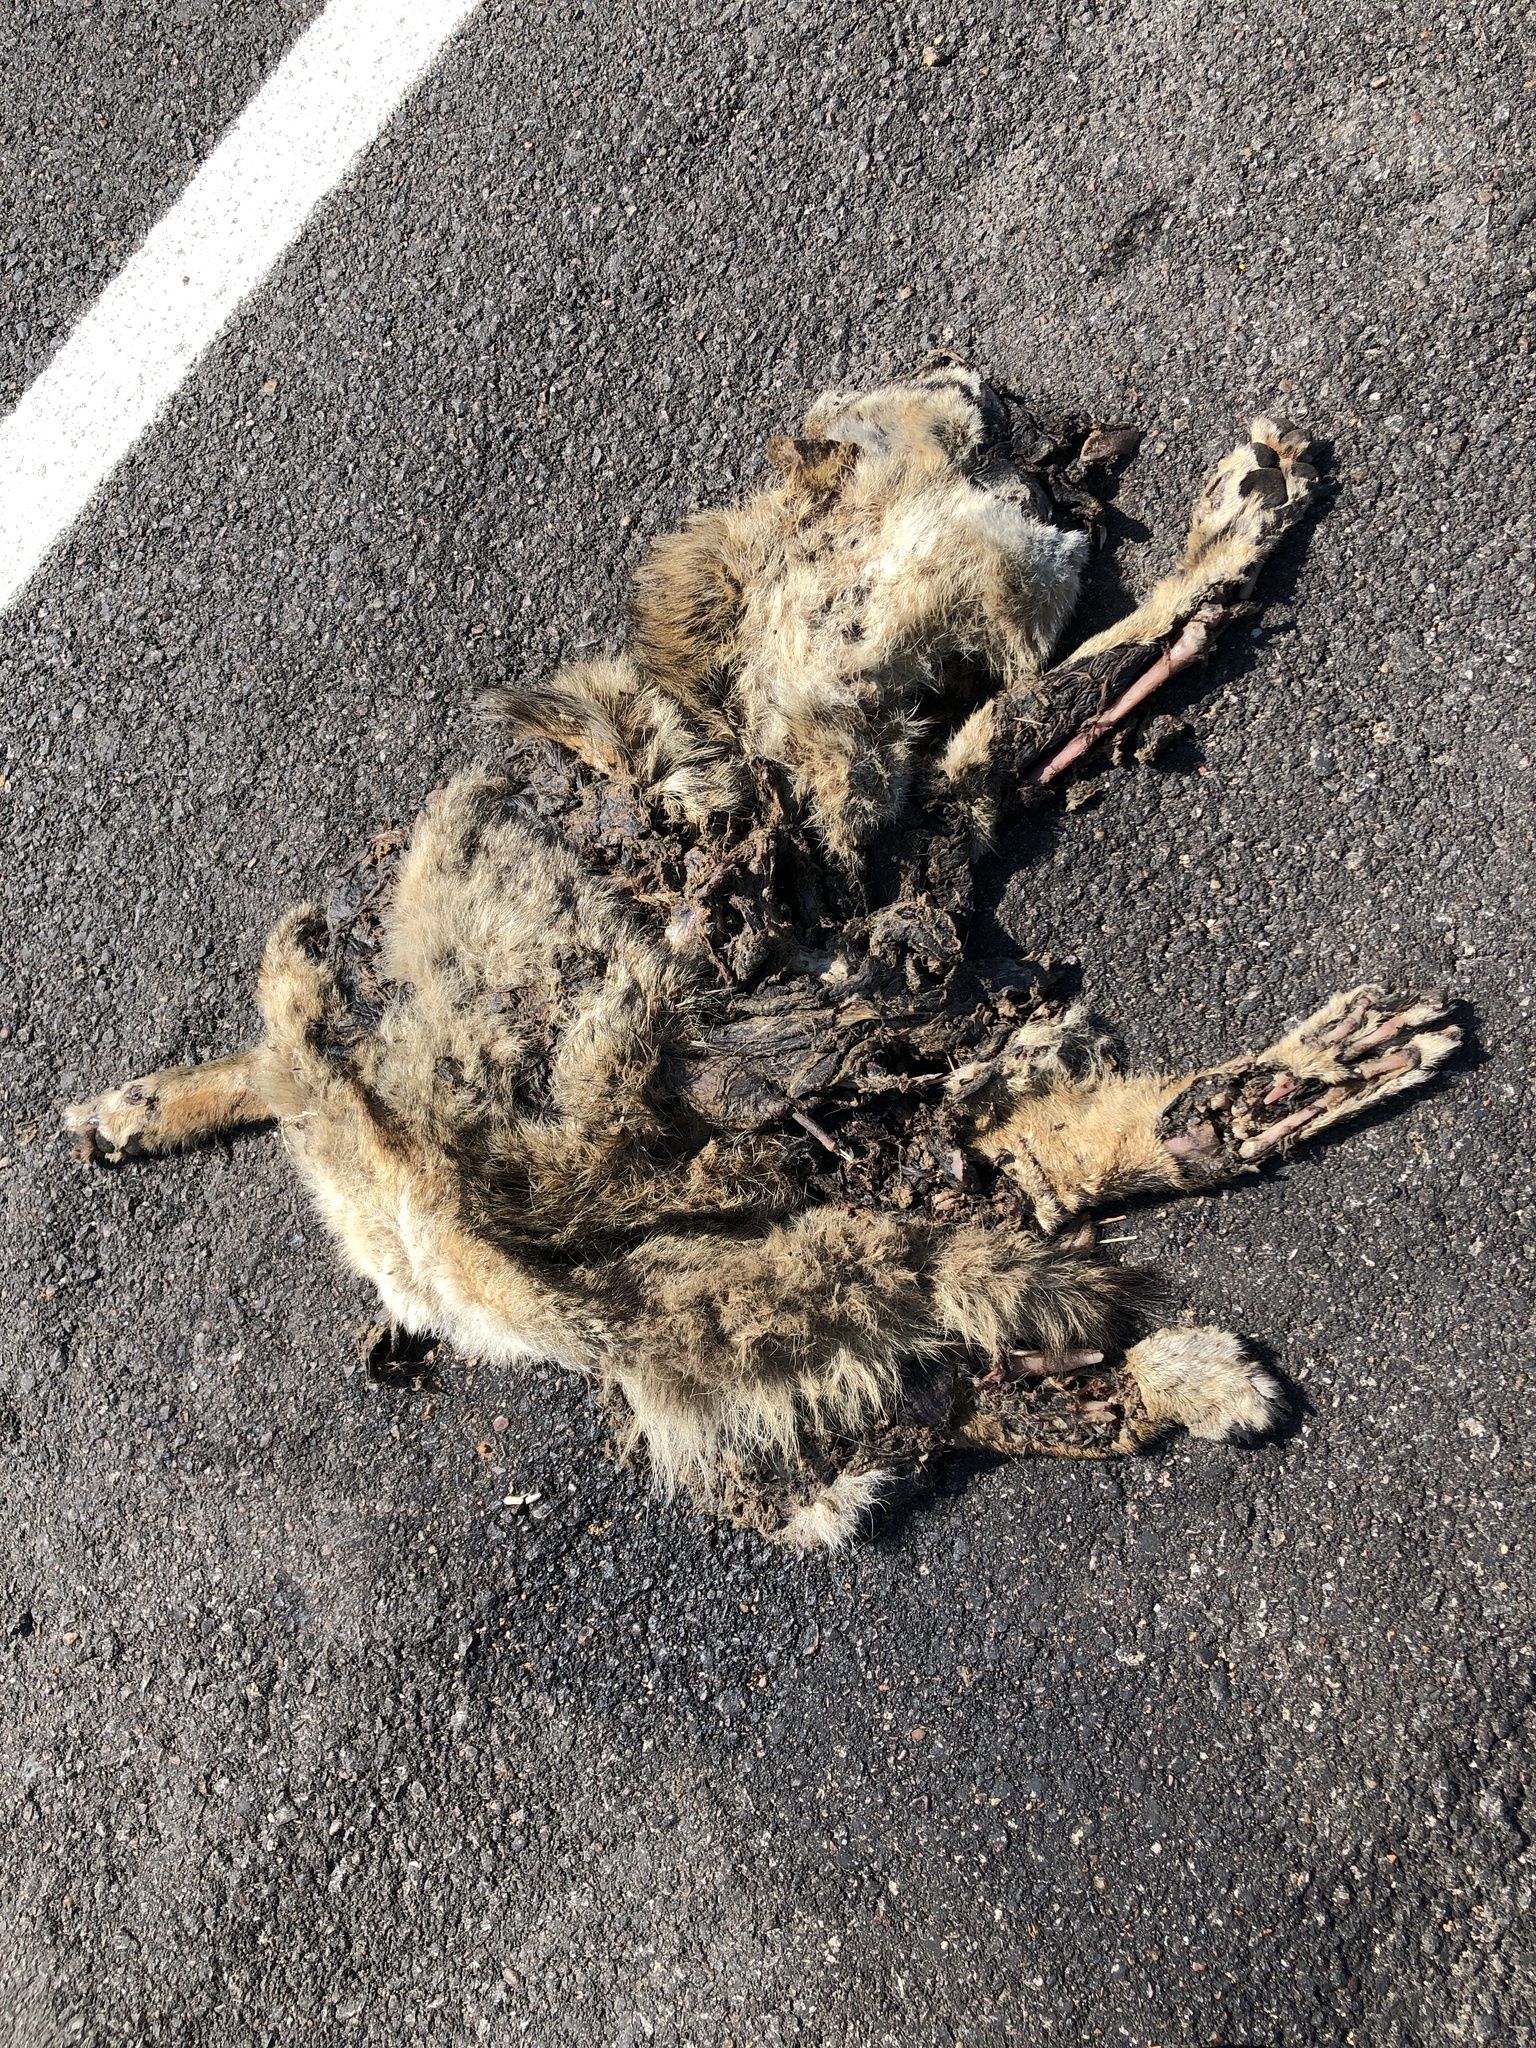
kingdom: Animalia
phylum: Chordata
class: Mammalia
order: Carnivora
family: Canidae
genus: Canis
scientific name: Canis latrans
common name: Coyote
